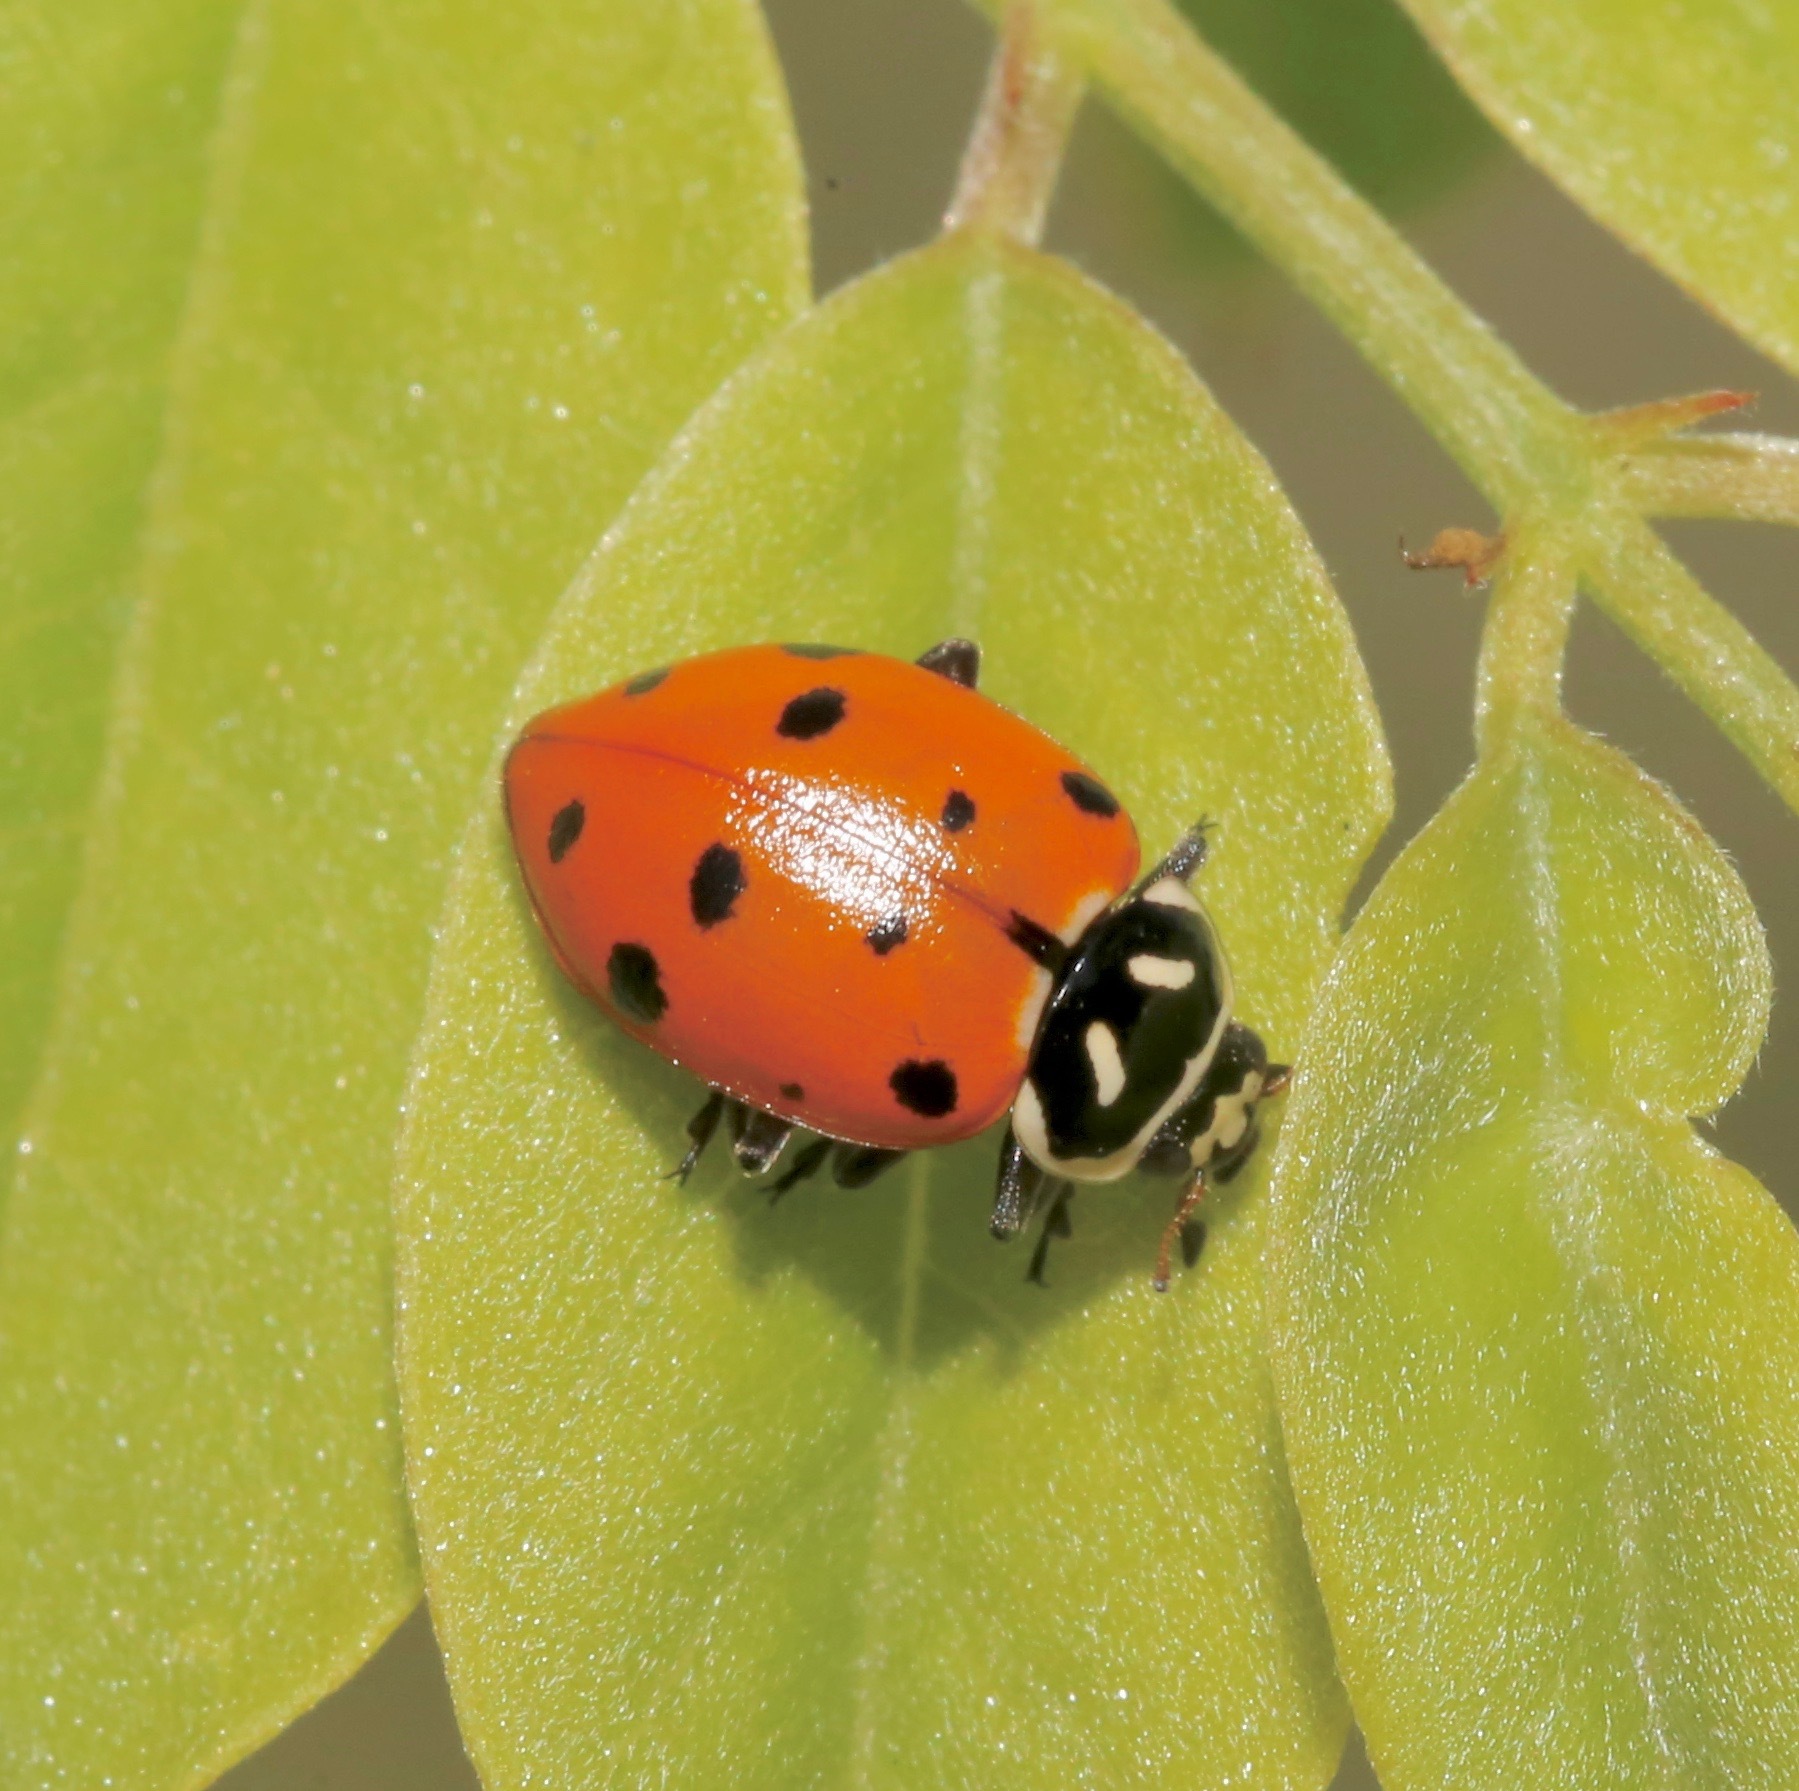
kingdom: Animalia
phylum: Arthropoda
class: Insecta
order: Coleoptera
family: Coccinellidae
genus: Hippodamia
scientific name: Hippodamia convergens
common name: Convergent lady beetle
